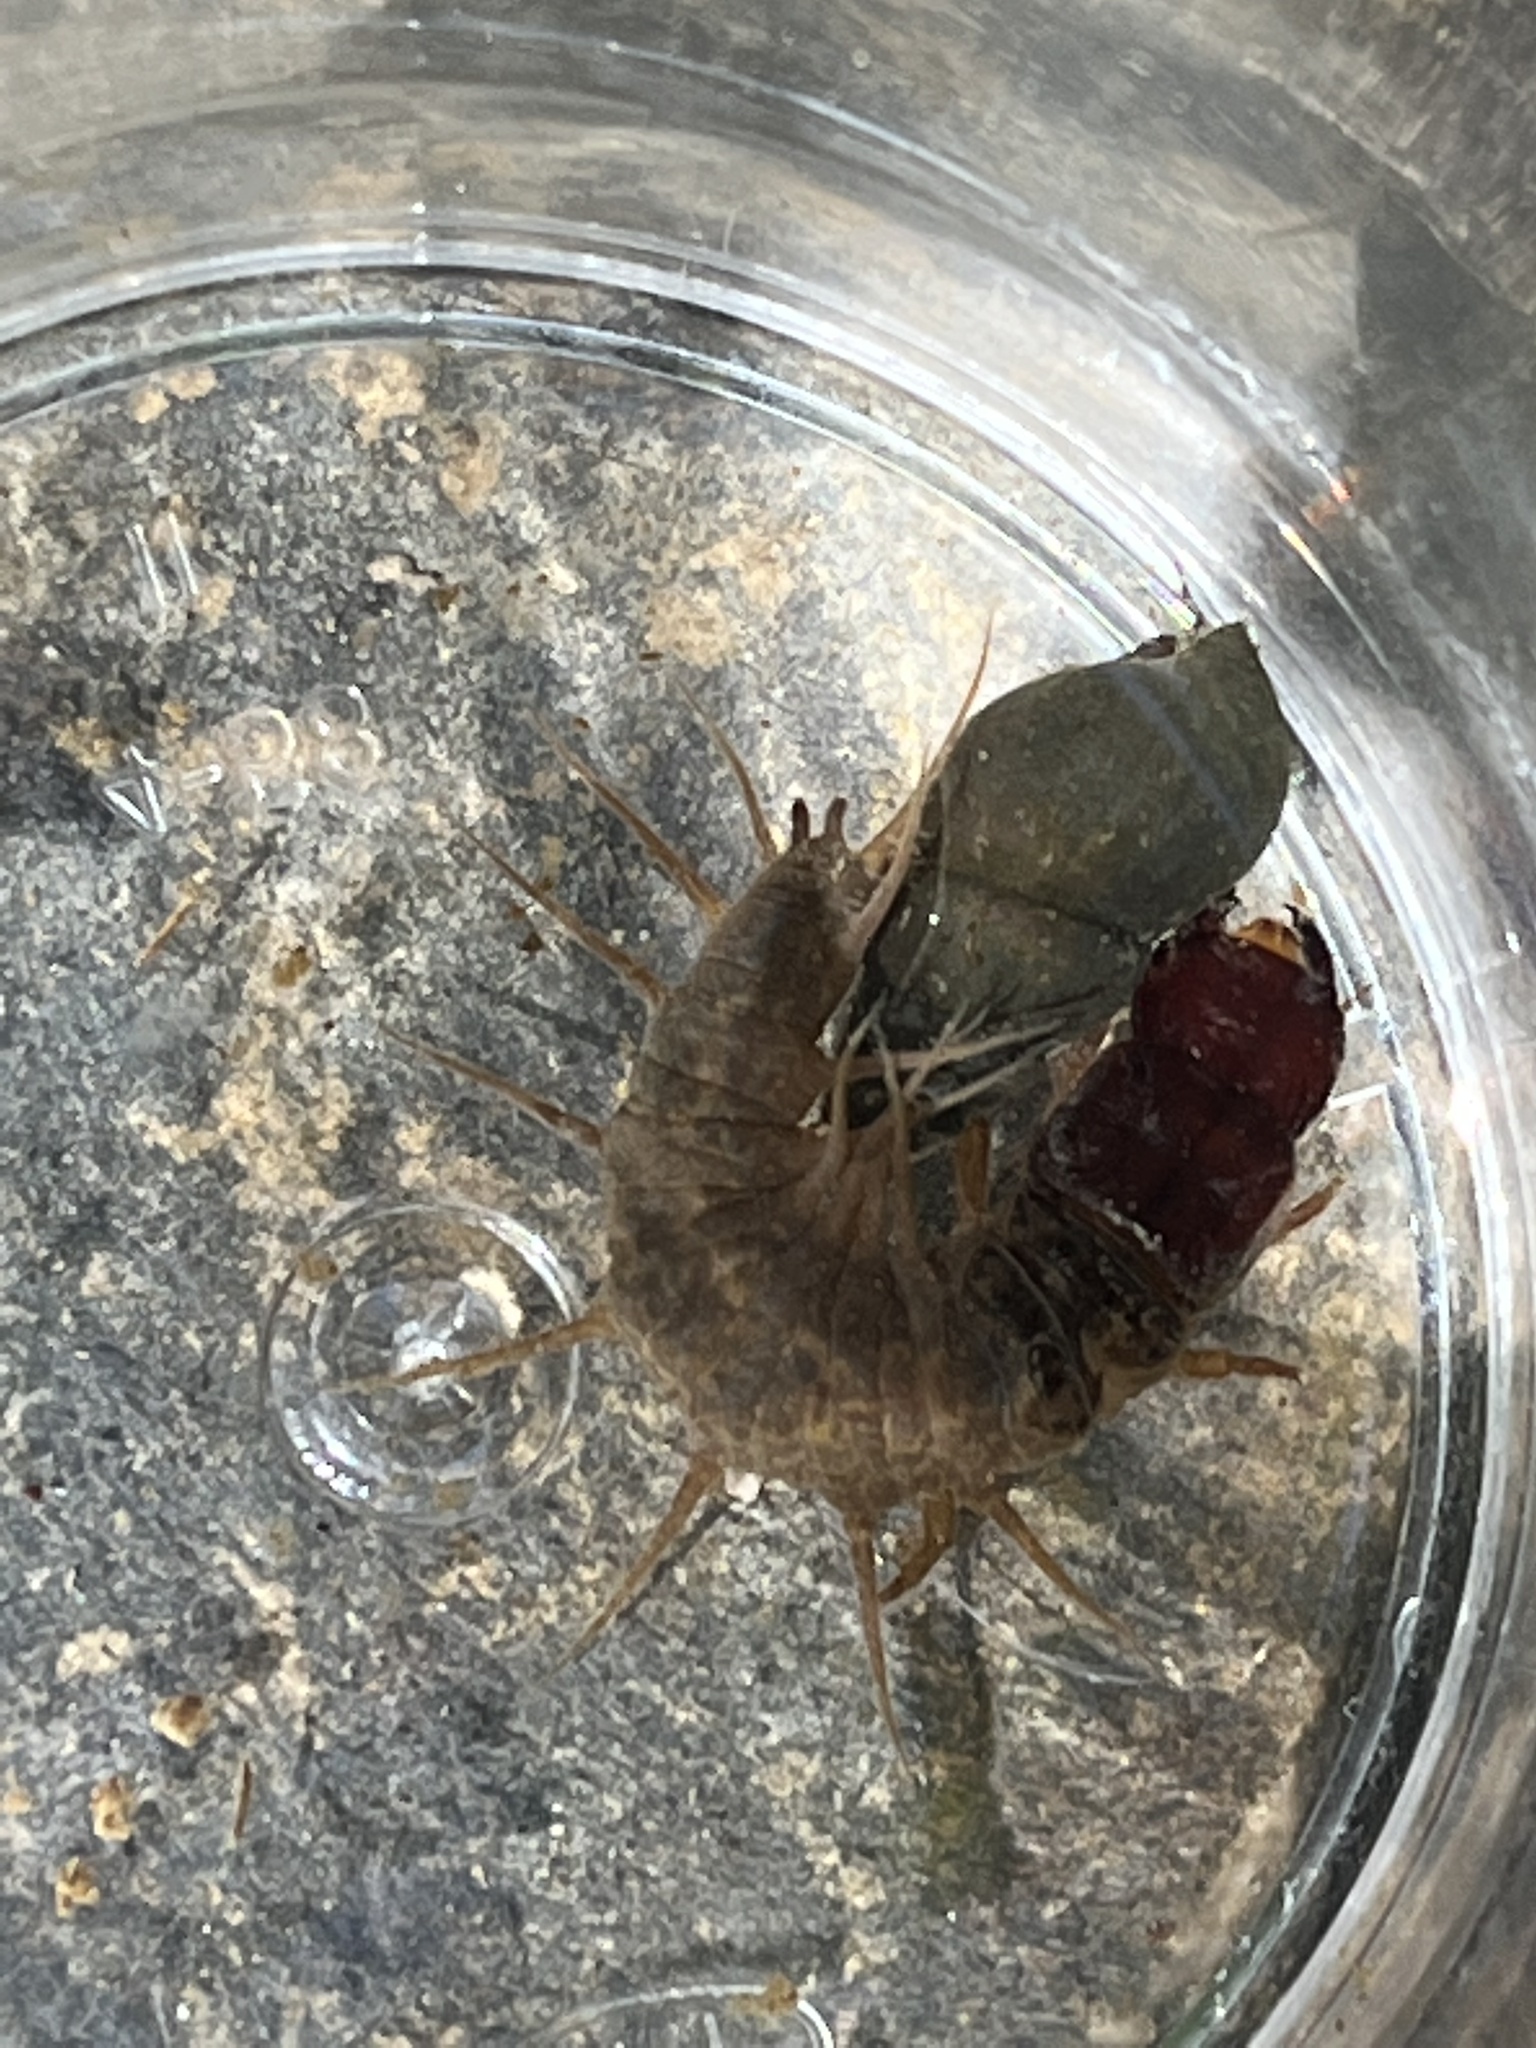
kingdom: Animalia
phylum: Arthropoda
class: Insecta
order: Megaloptera
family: Corydalidae
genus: Nigronia
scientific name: Nigronia fasciata
